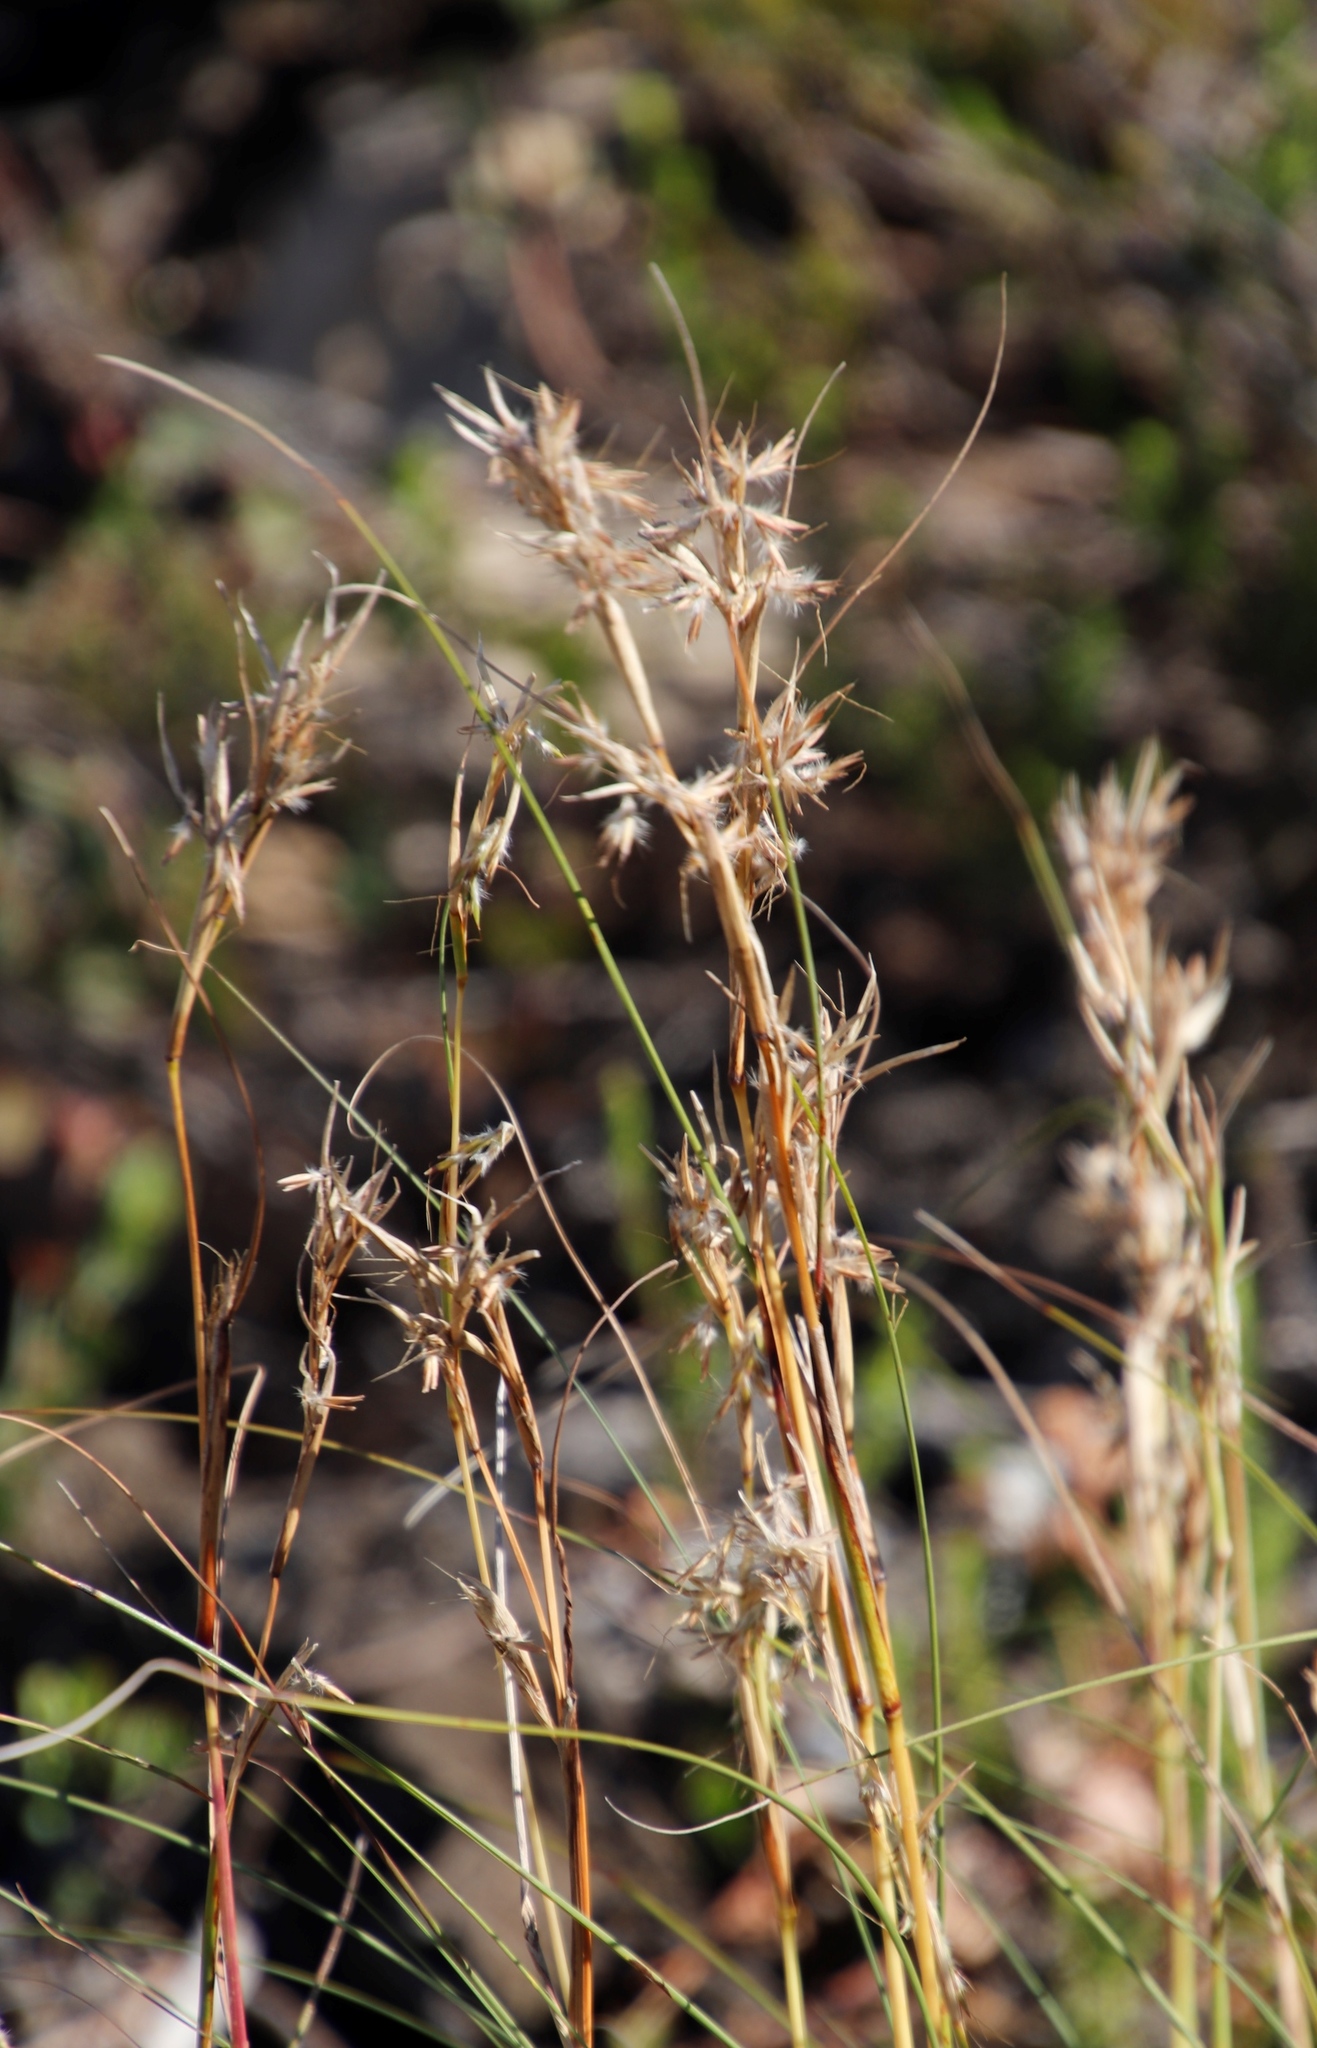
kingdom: Plantae
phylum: Tracheophyta
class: Liliopsida
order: Poales
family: Poaceae
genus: Cymbopogon
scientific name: Cymbopogon pospischilii
